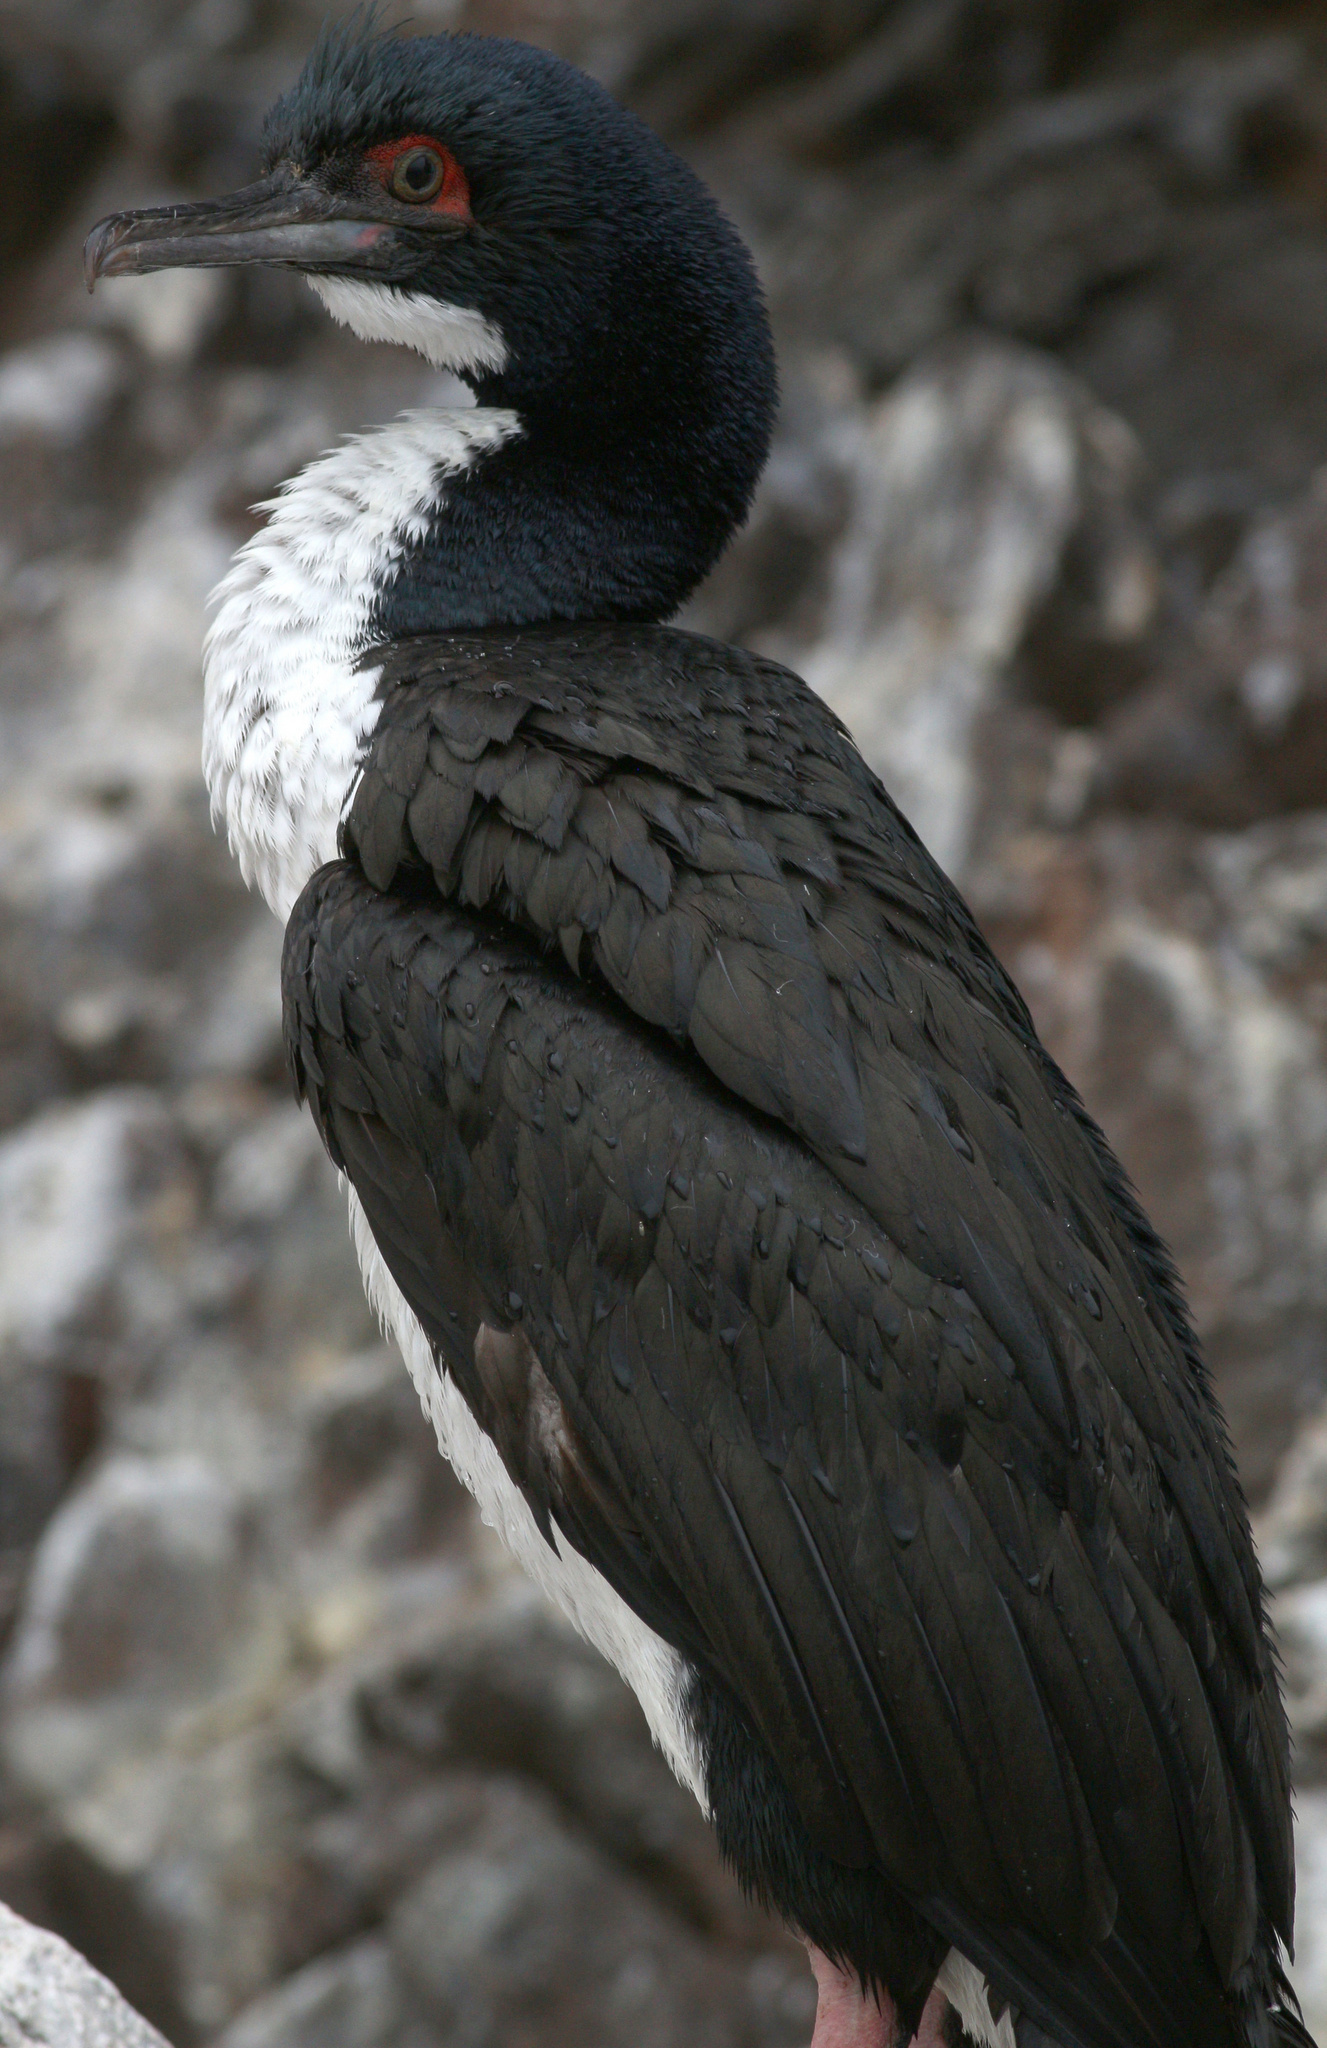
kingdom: Animalia
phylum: Chordata
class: Aves
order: Suliformes
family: Phalacrocoracidae
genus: Leucocarbo
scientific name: Leucocarbo bougainvillii
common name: Guanay cormorant
